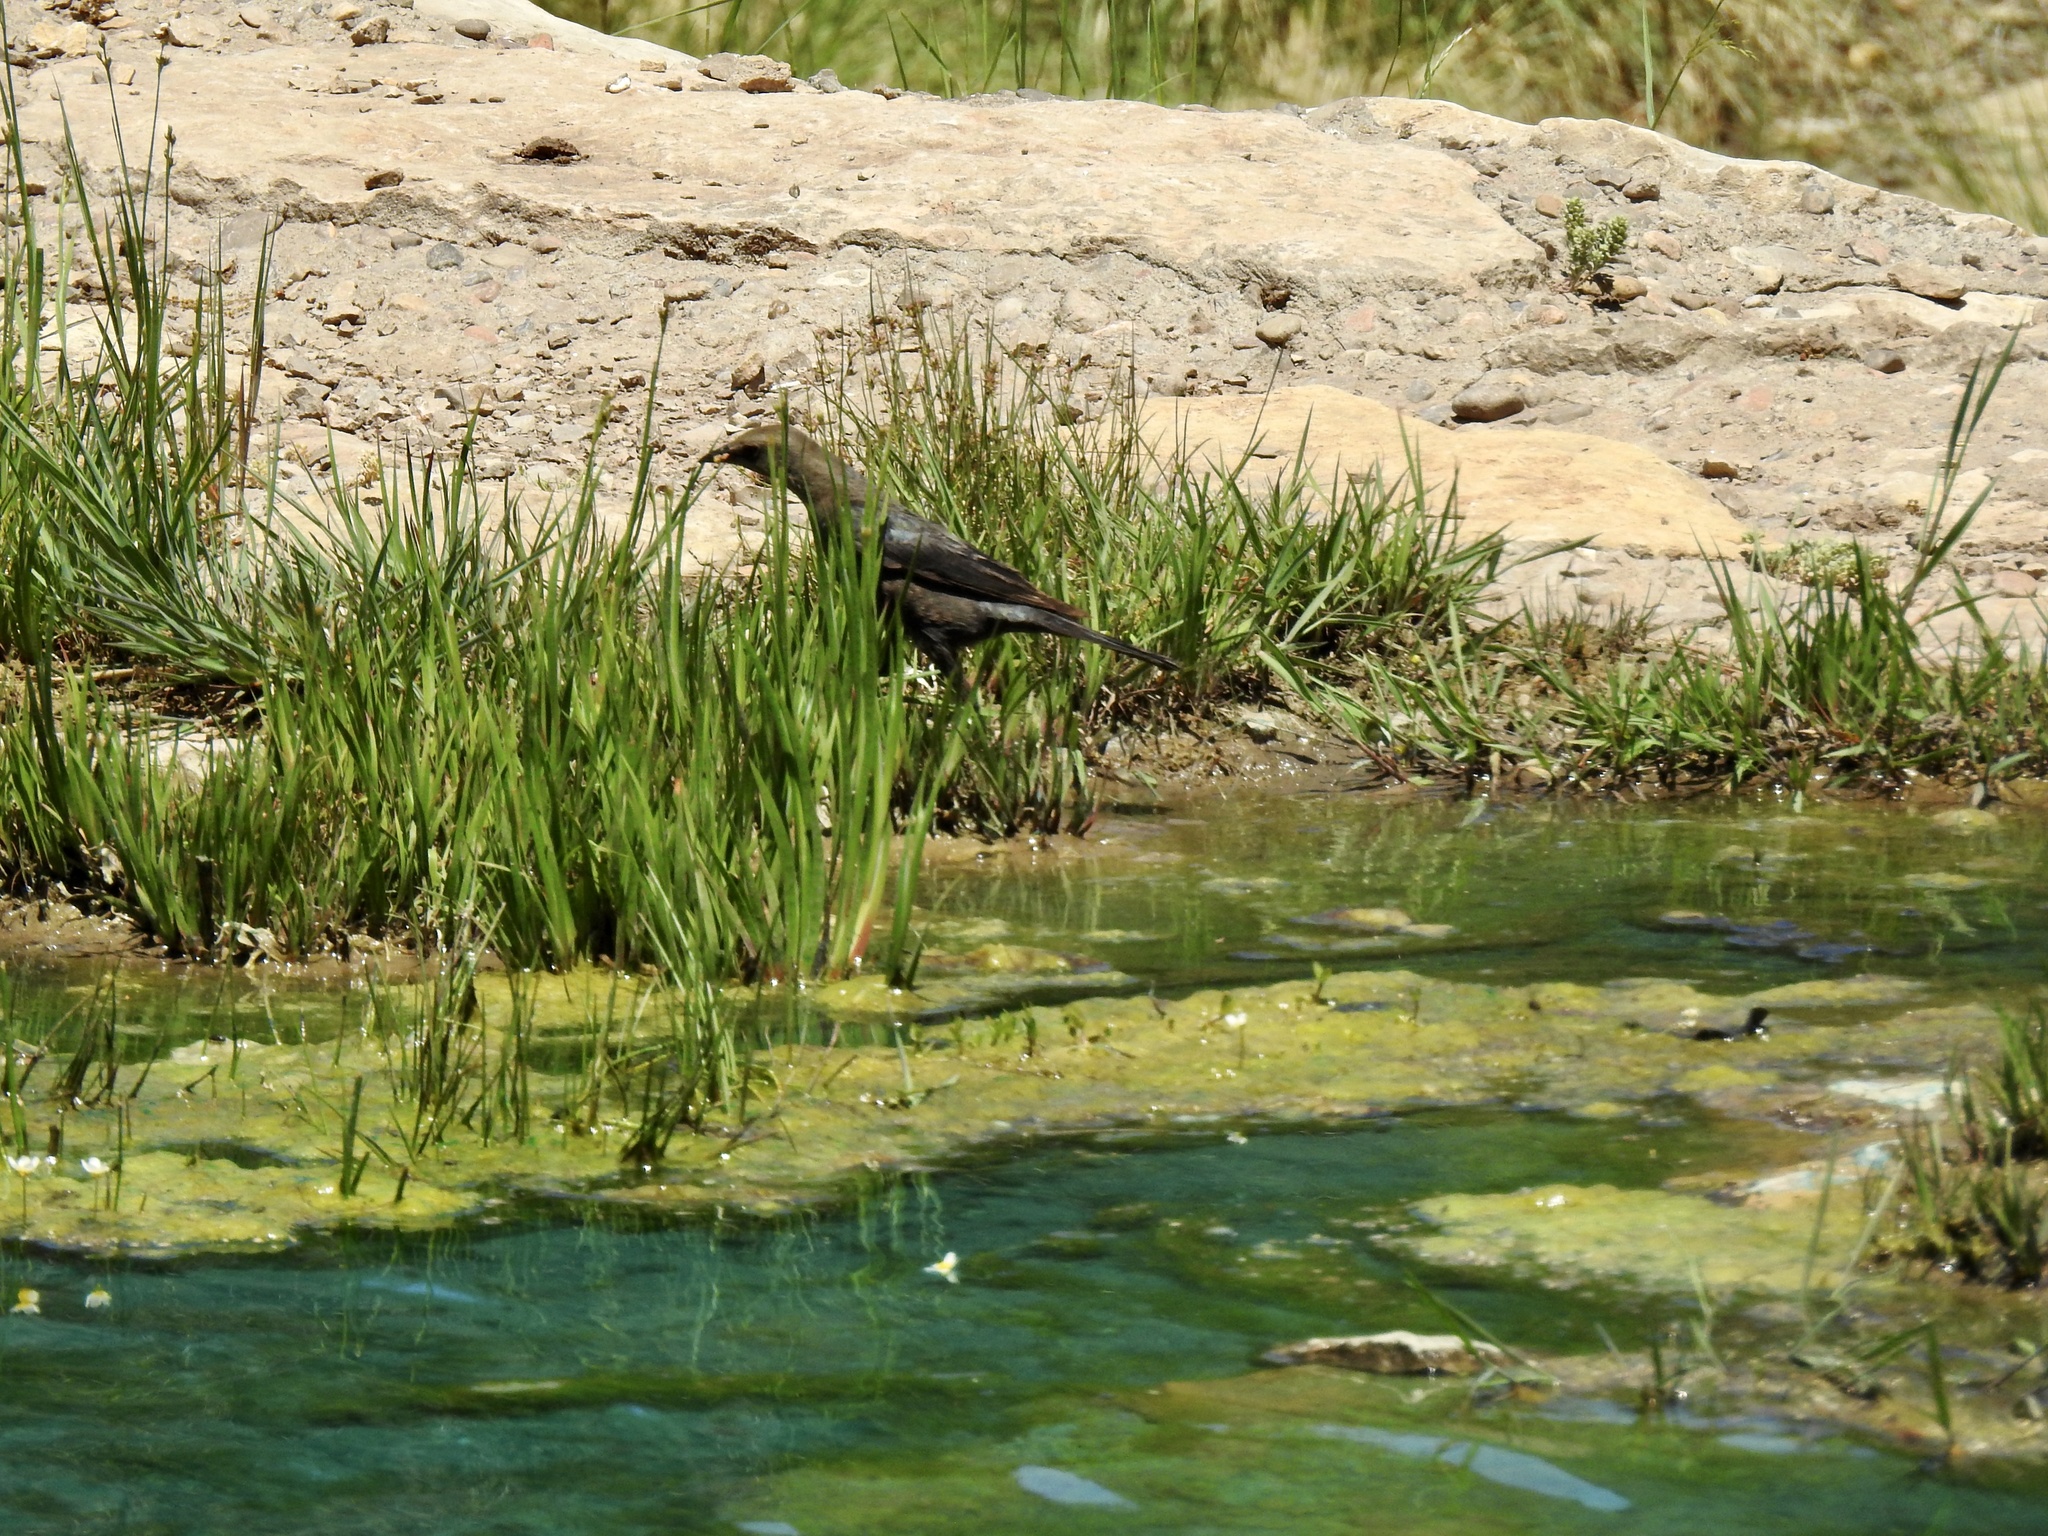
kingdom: Animalia
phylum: Chordata
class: Aves
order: Passeriformes
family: Icteridae
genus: Euphagus
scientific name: Euphagus cyanocephalus
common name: Brewer's blackbird
